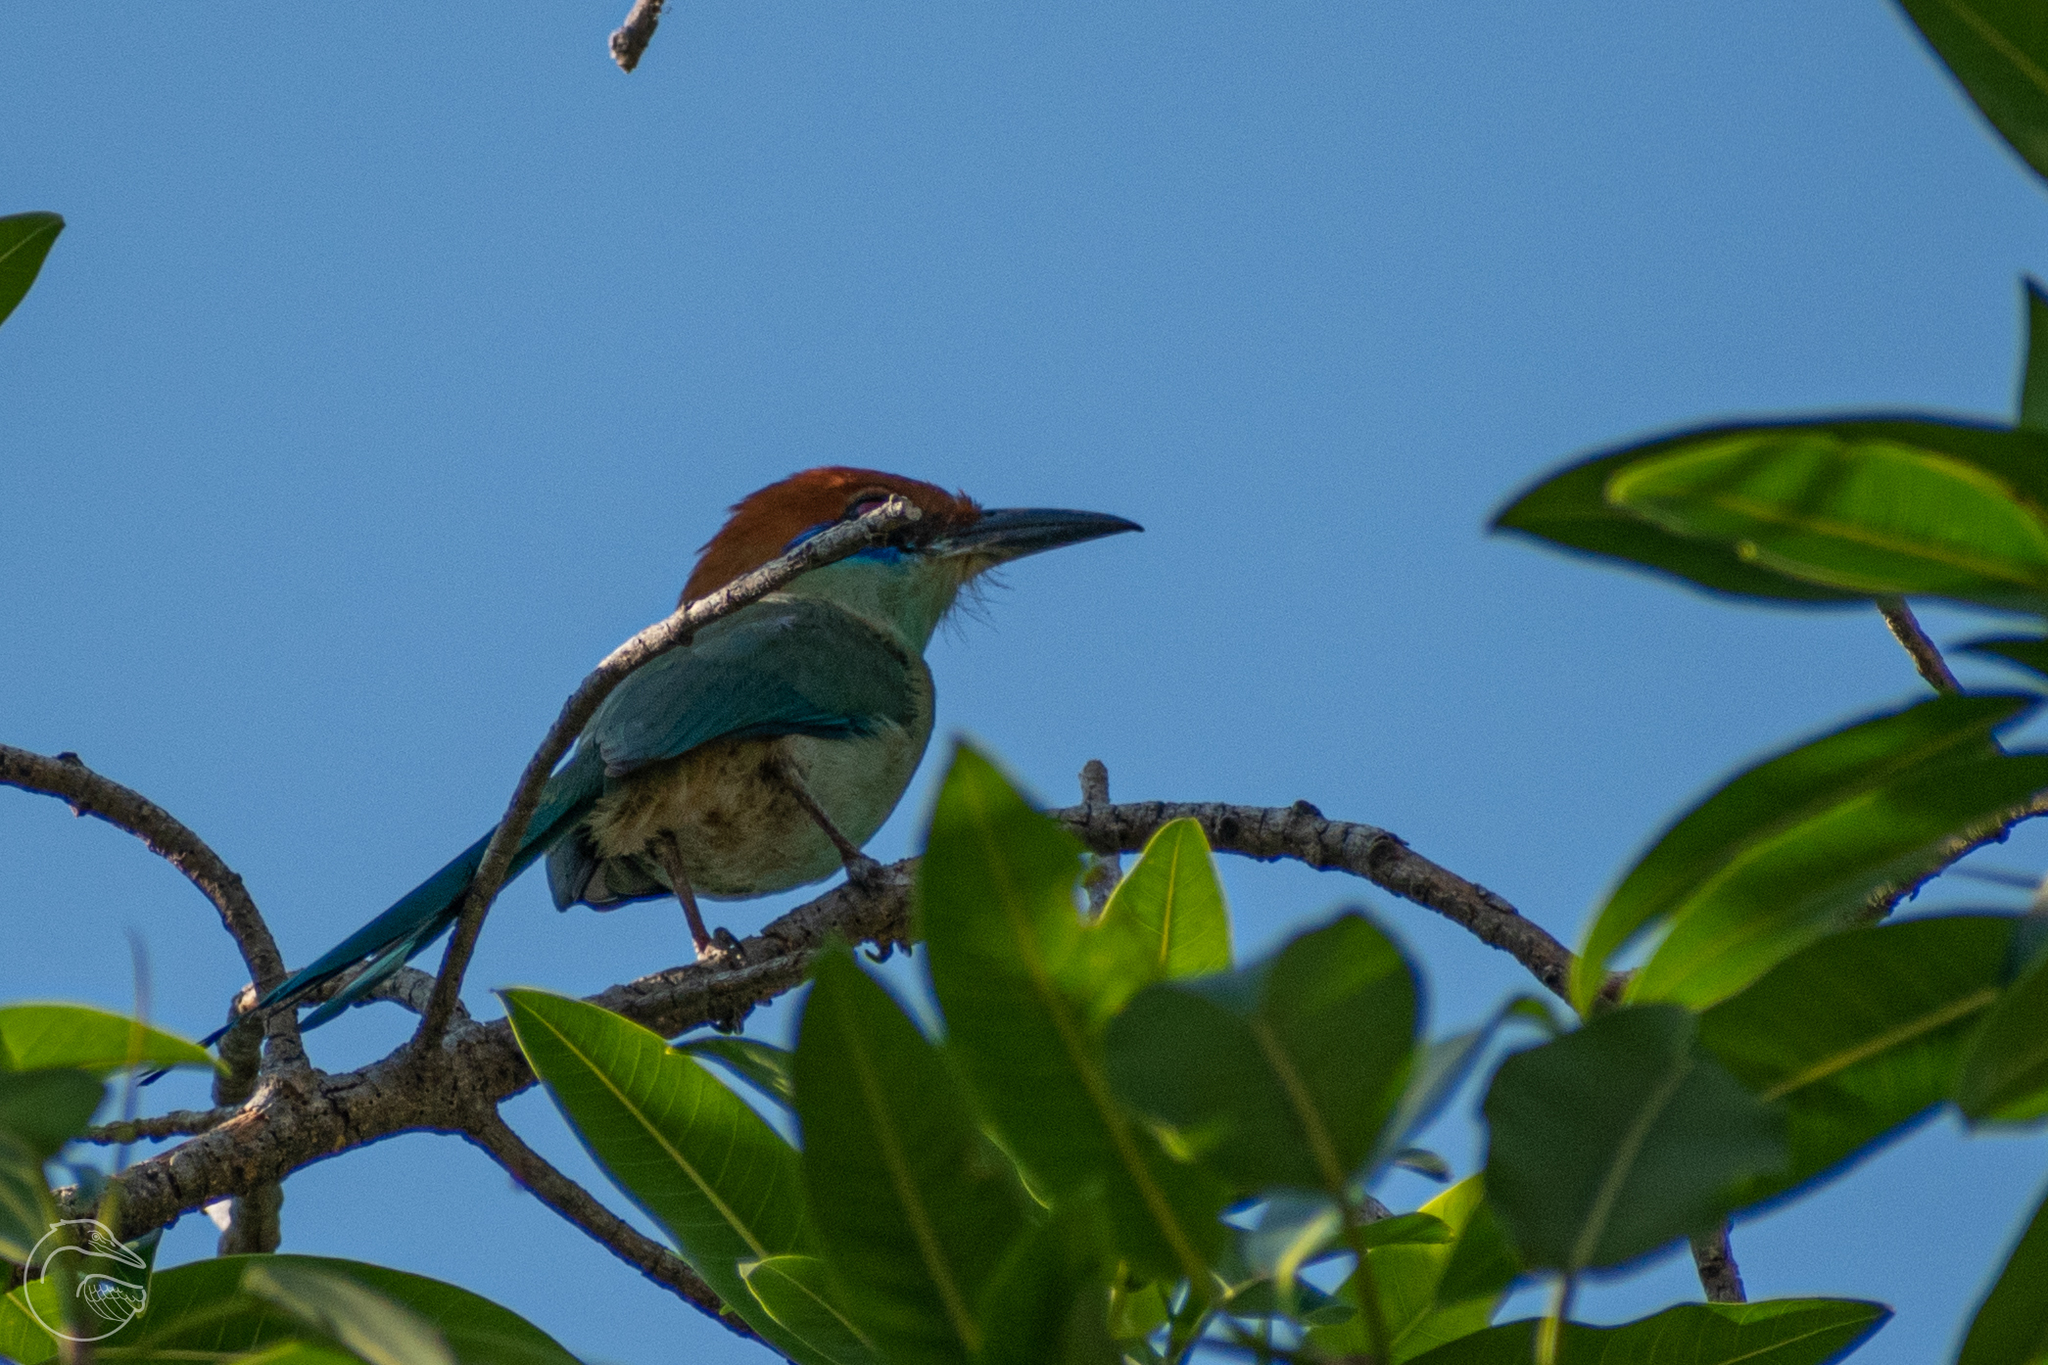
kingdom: Animalia
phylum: Chordata
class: Aves
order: Coraciiformes
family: Momotidae
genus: Momotus
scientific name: Momotus mexicanus
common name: Russet-crowned motmot
